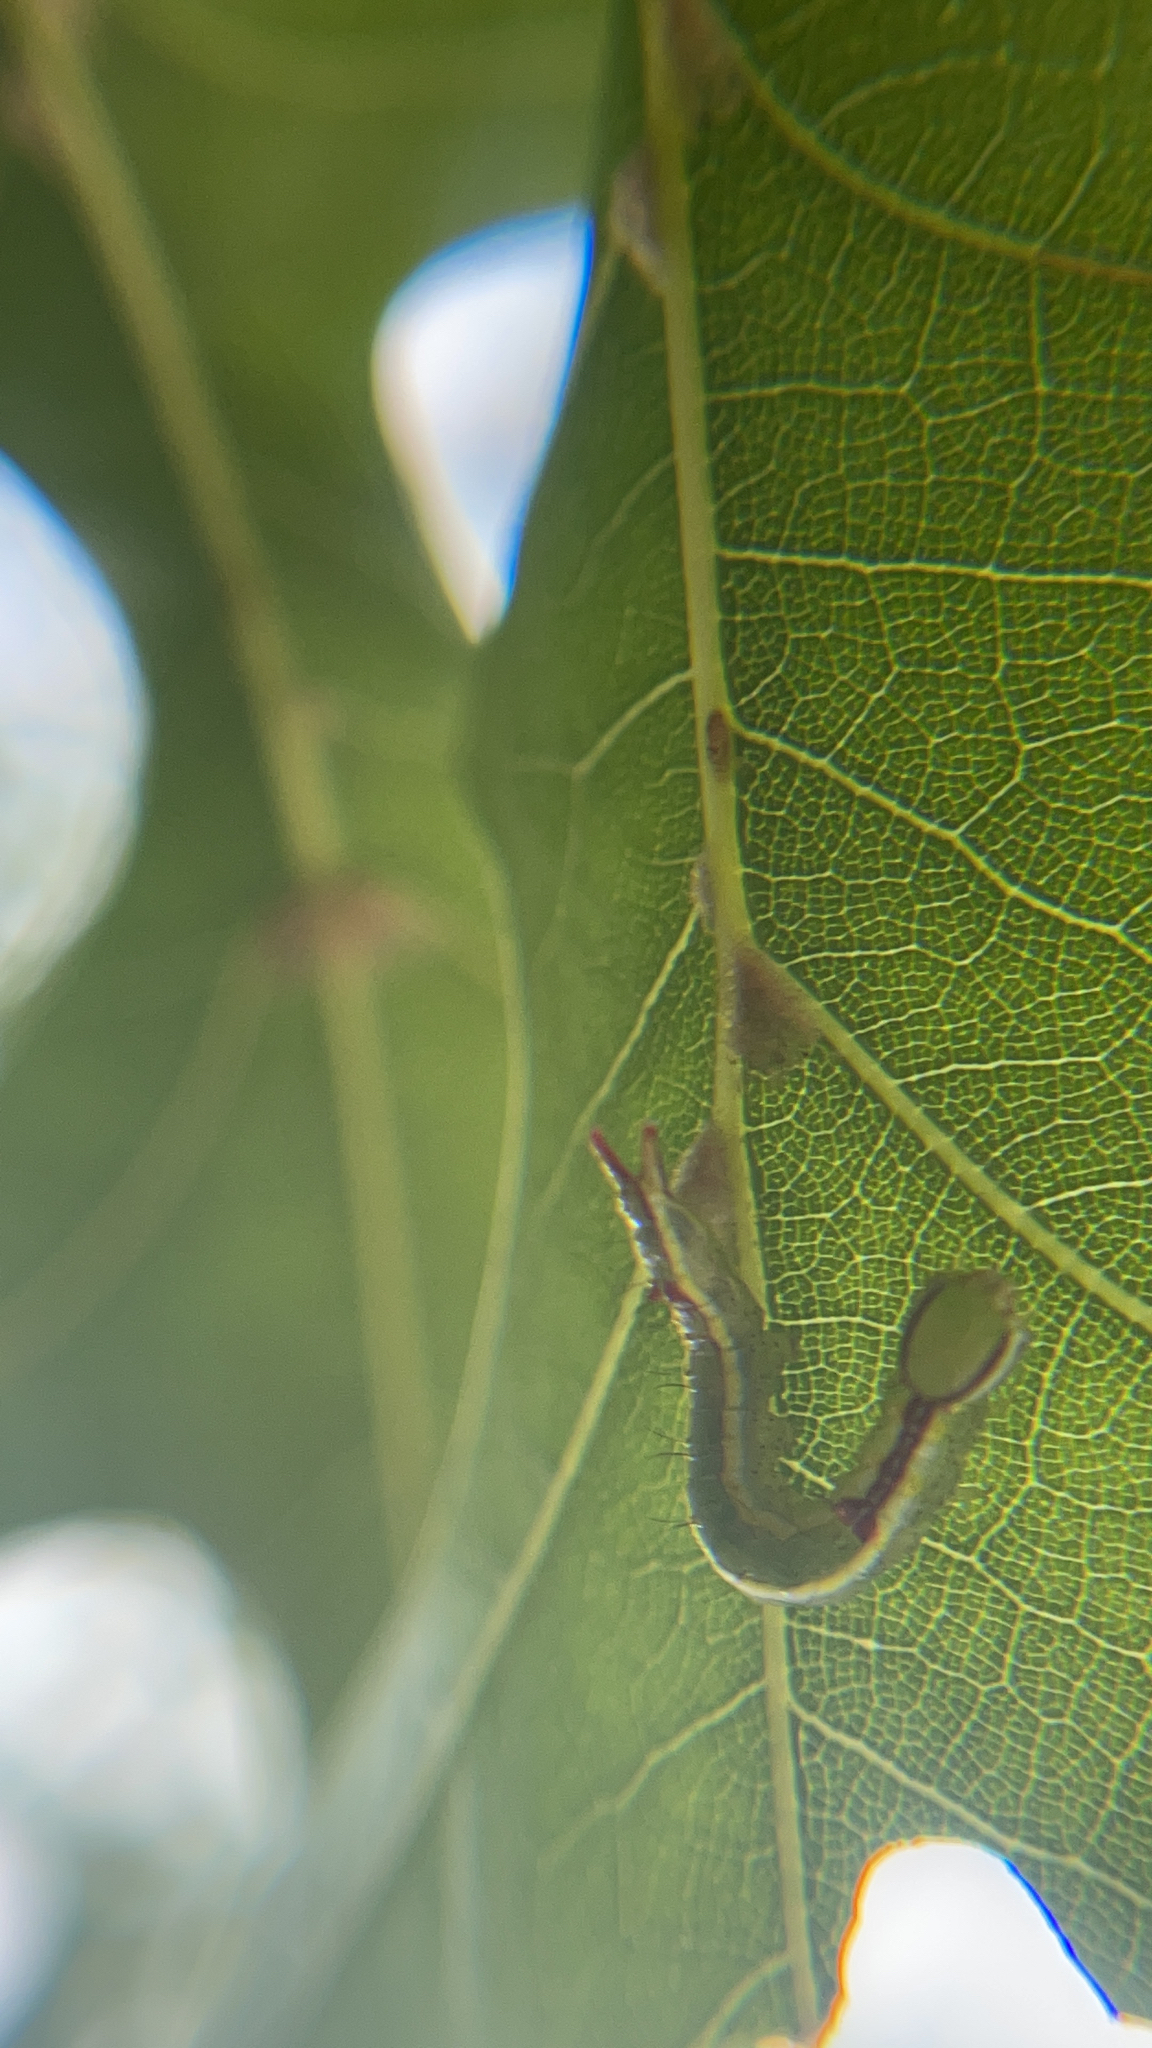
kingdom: Animalia
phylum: Arthropoda
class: Insecta
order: Lepidoptera
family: Notodontidae
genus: Lochmaeus
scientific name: Lochmaeus manteo
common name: Variable oakleaf caterpillar moth
